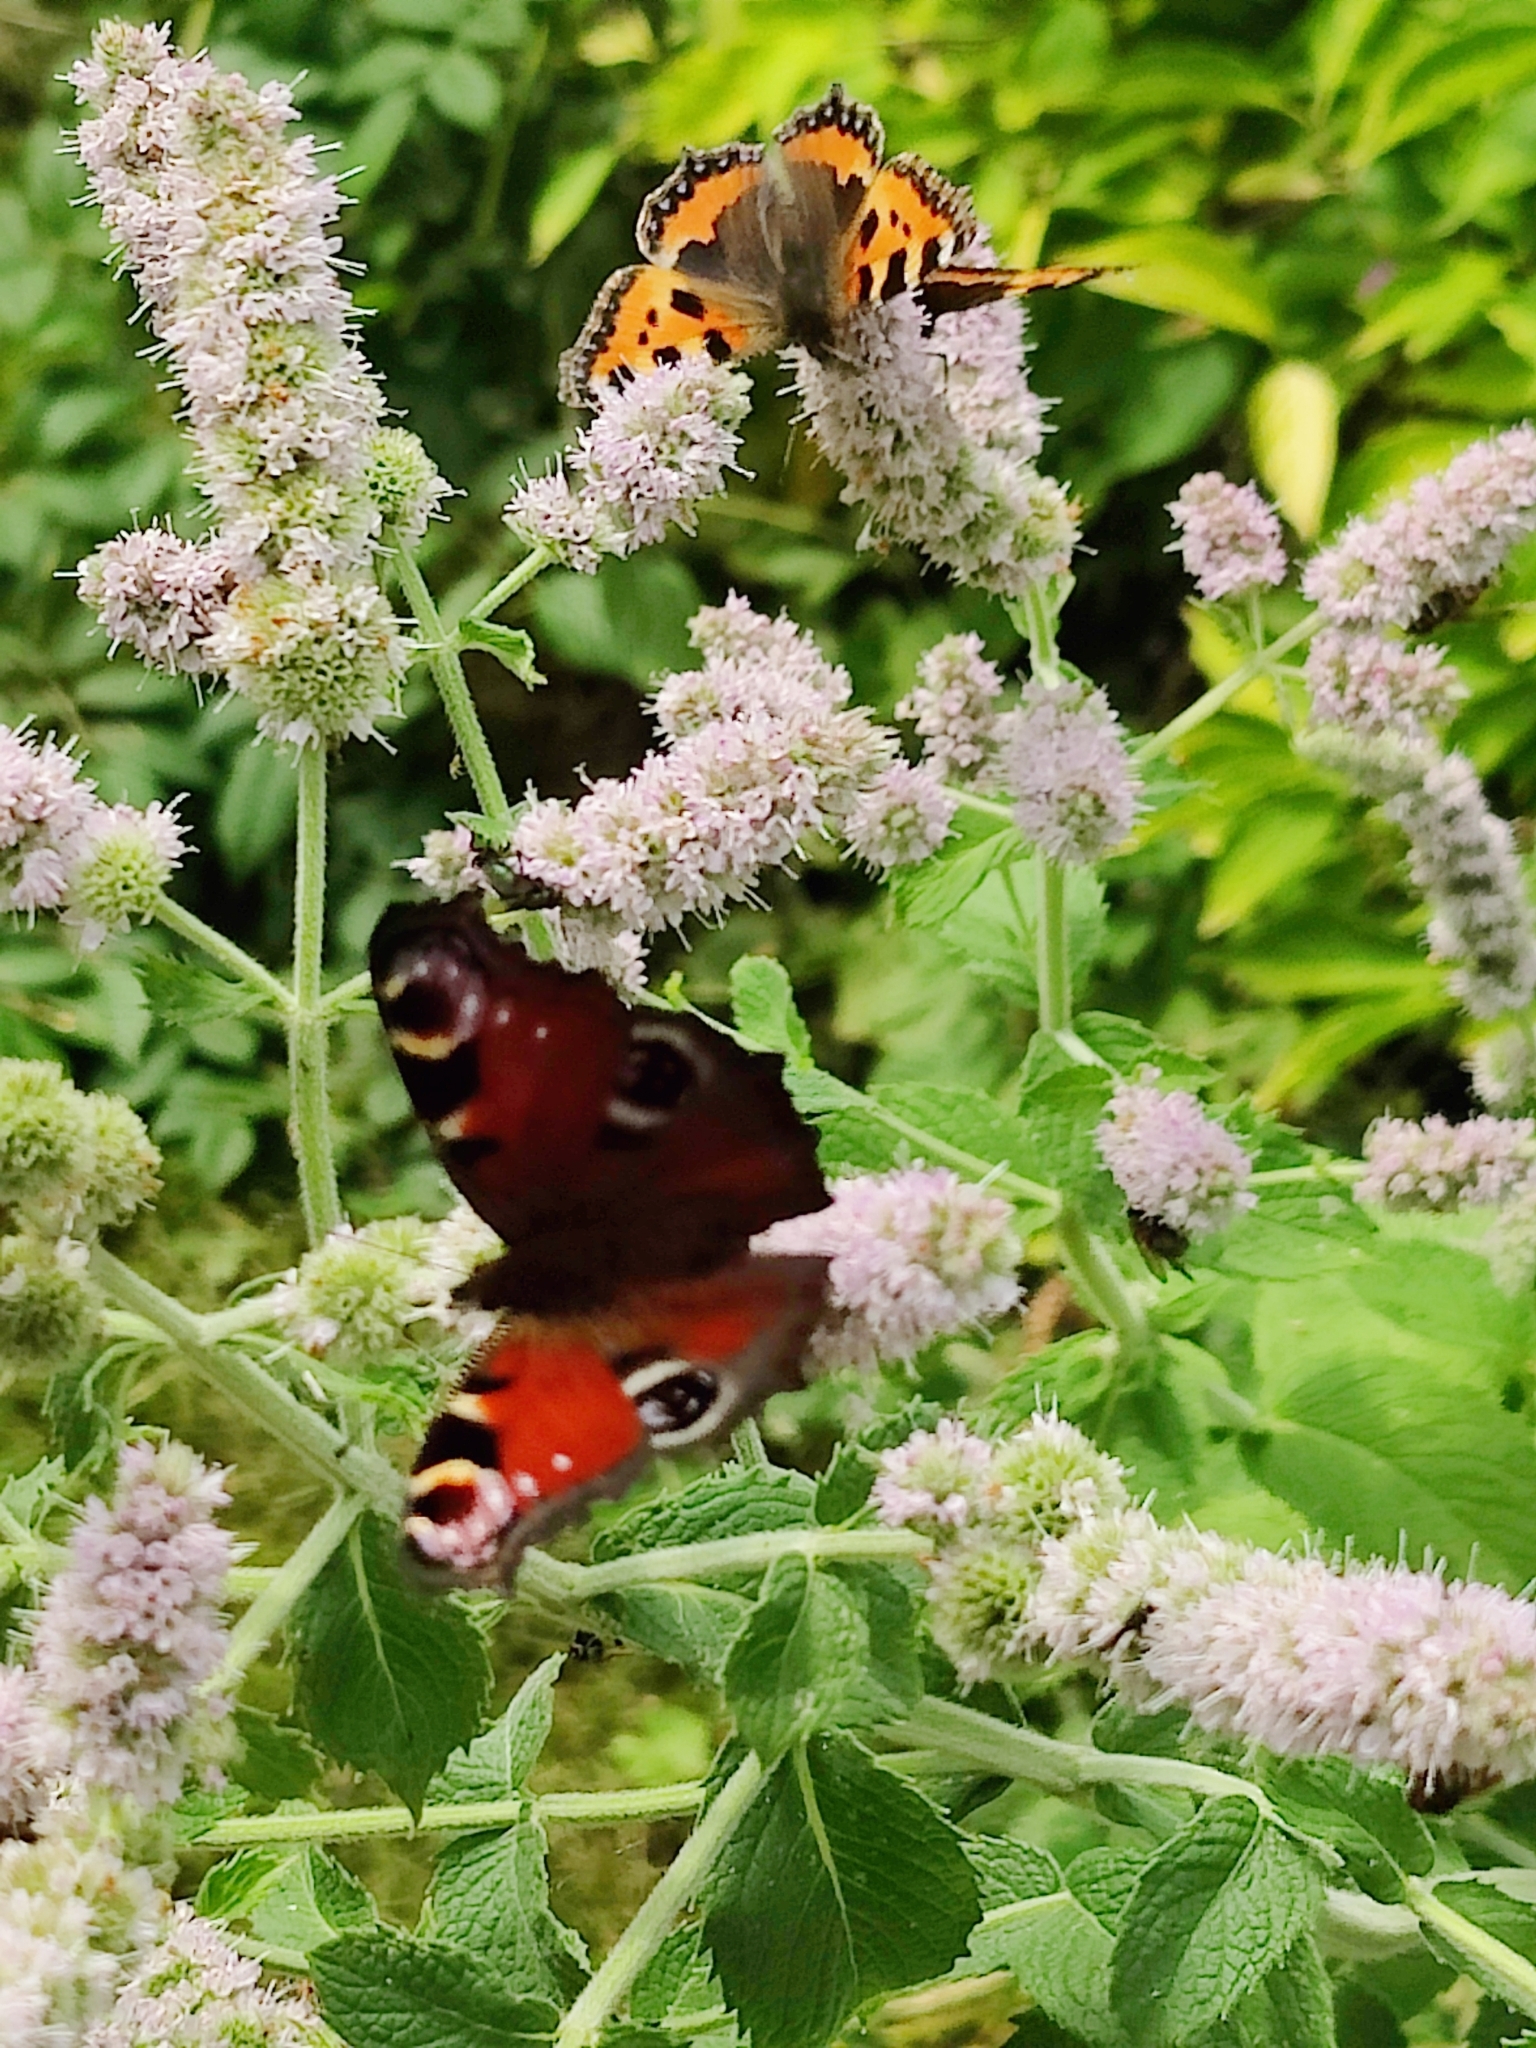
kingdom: Animalia
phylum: Arthropoda
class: Insecta
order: Lepidoptera
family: Nymphalidae
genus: Aglais
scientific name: Aglais io
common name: Peacock
